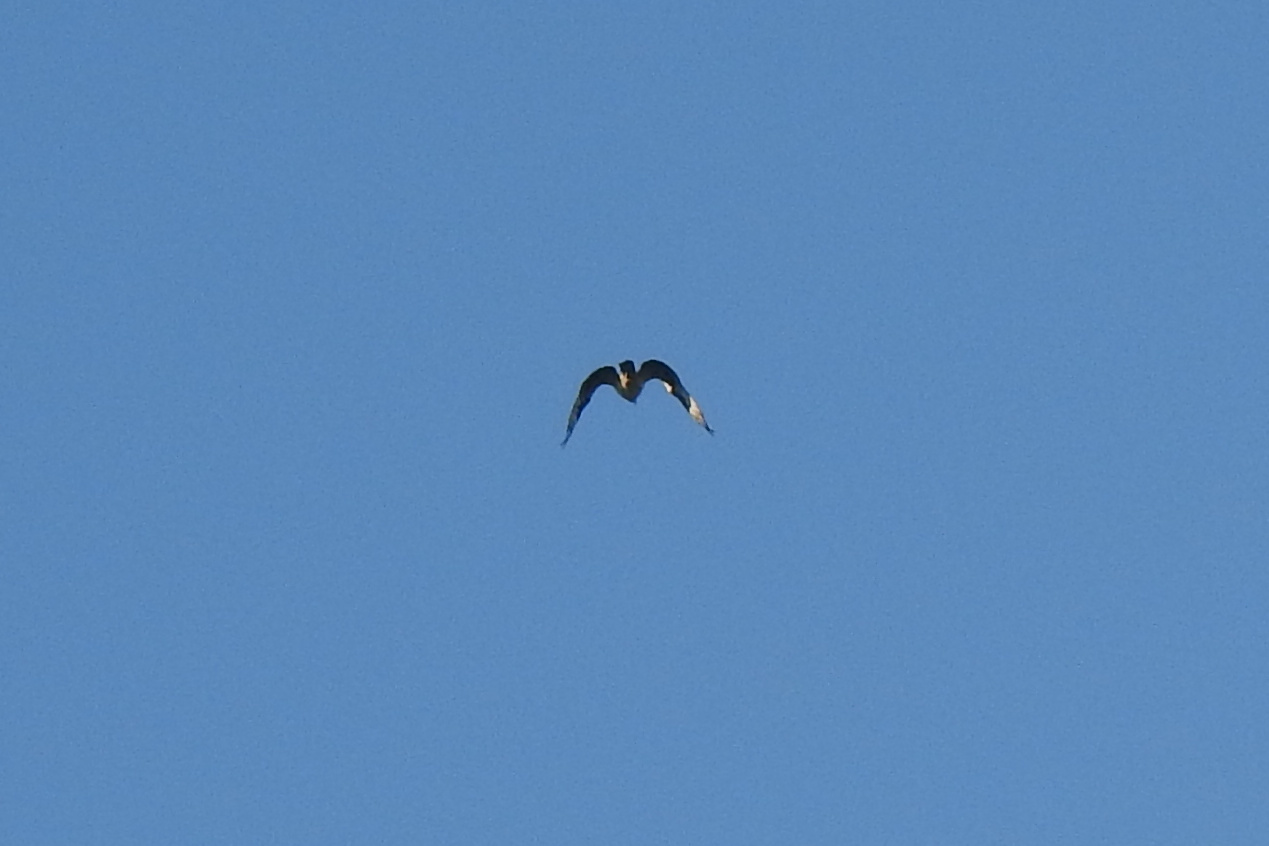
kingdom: Animalia
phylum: Chordata
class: Aves
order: Charadriiformes
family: Laridae
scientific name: Laridae
